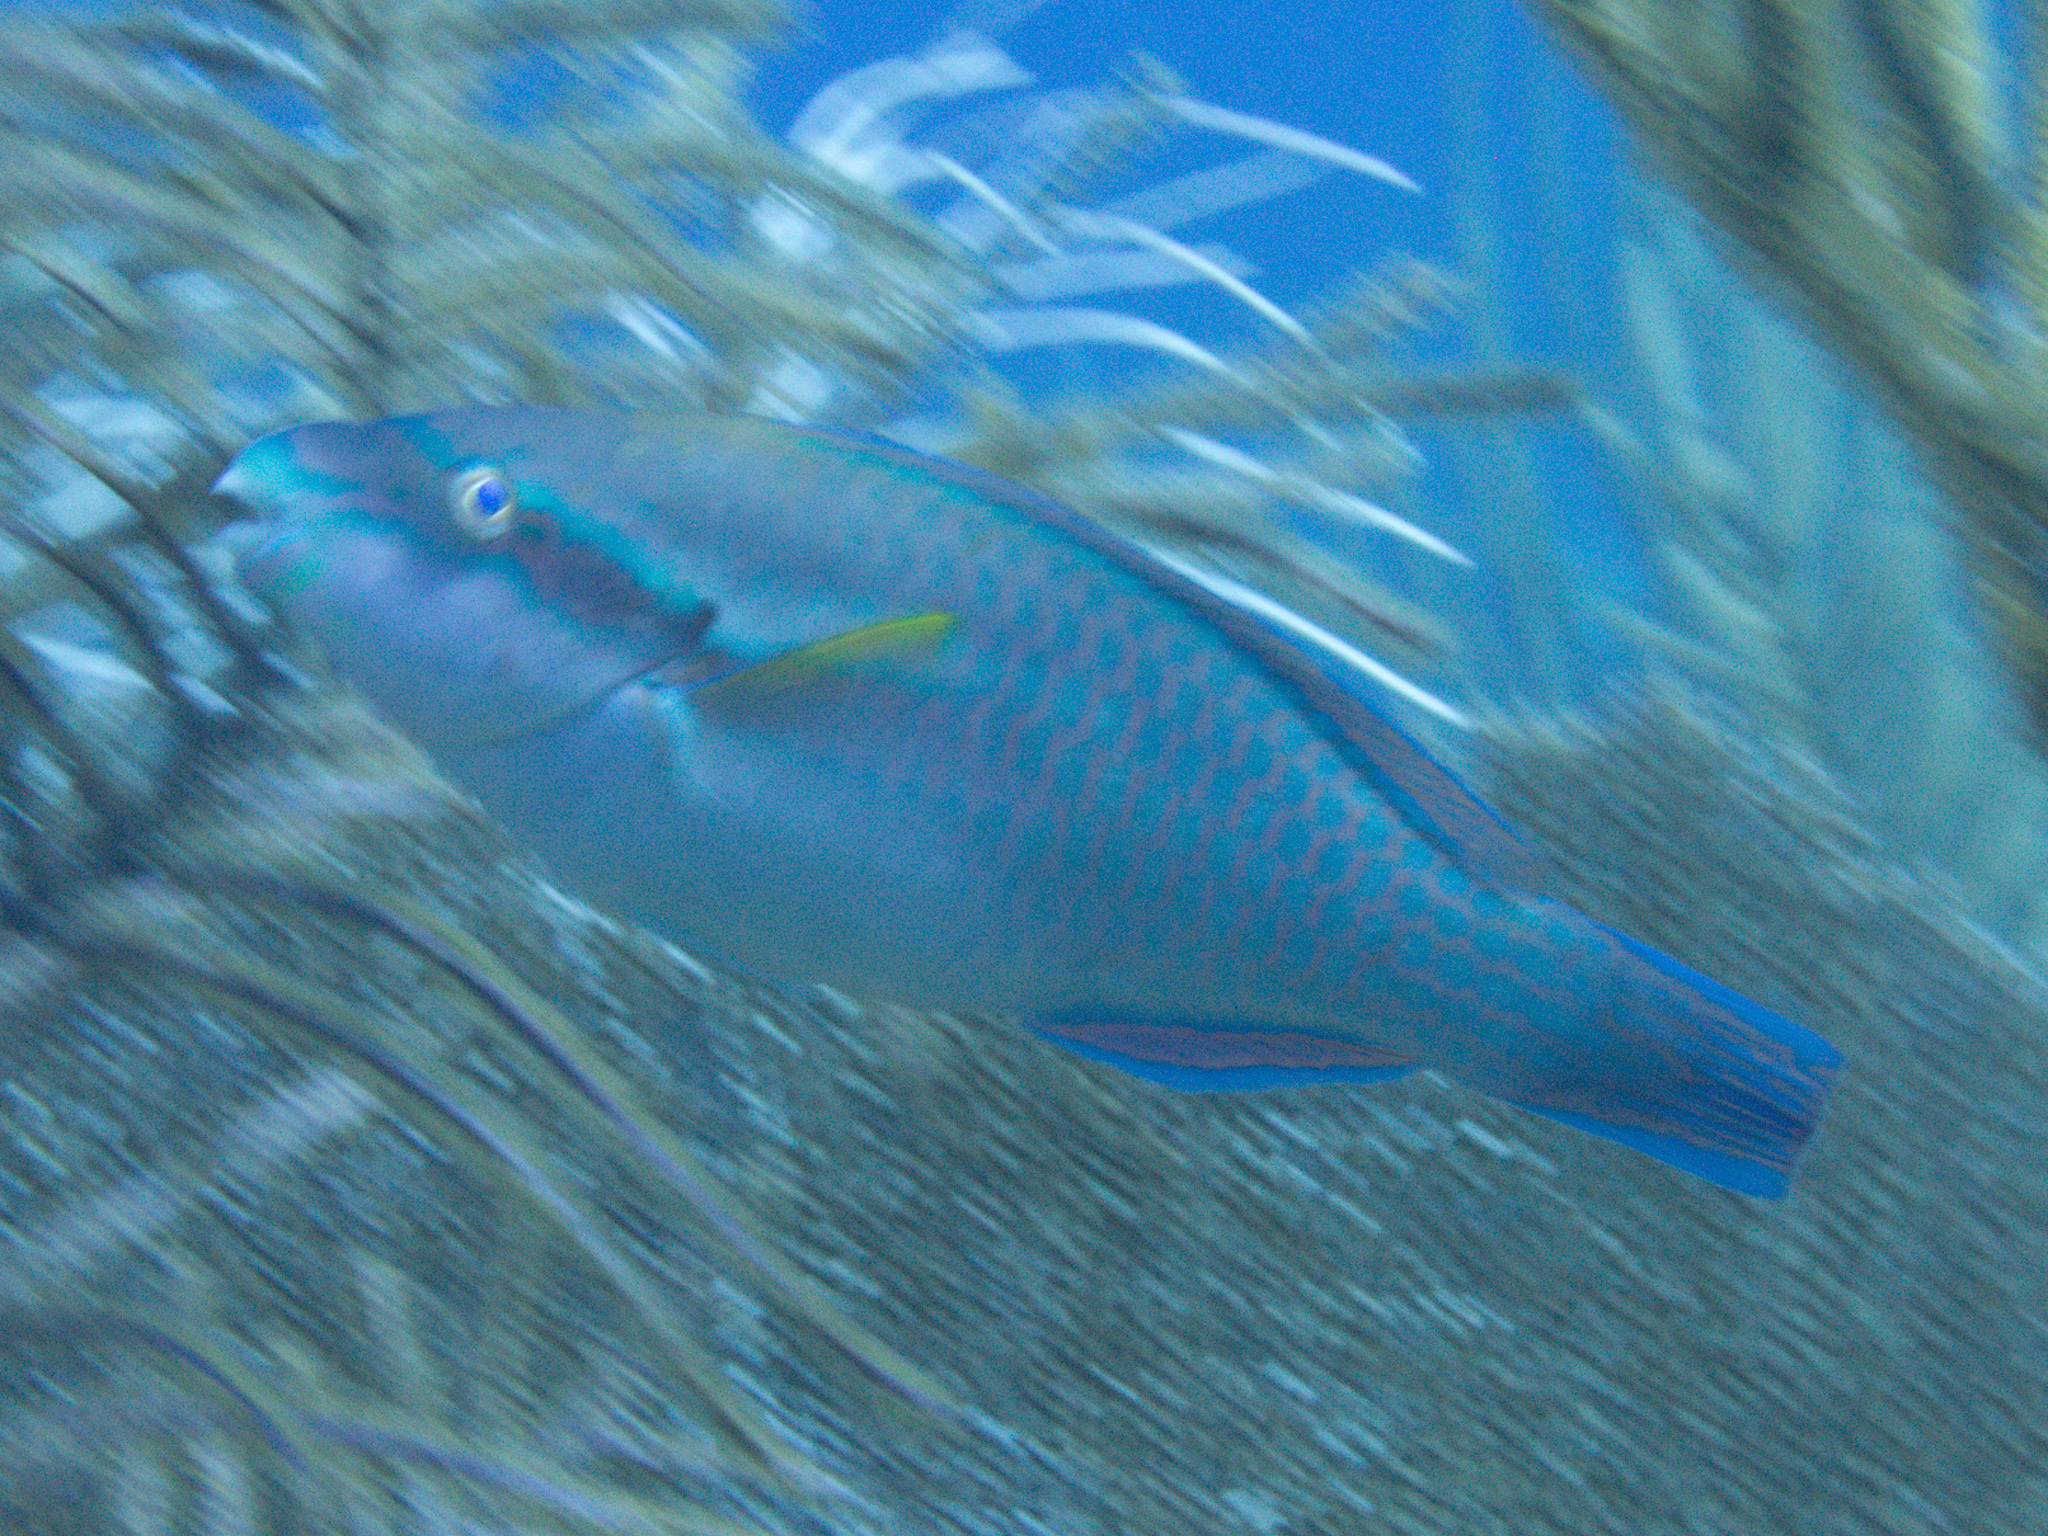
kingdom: Animalia
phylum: Chordata
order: Perciformes
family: Scaridae
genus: Scarus
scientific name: Scarus iseri
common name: Striped parrotfish
